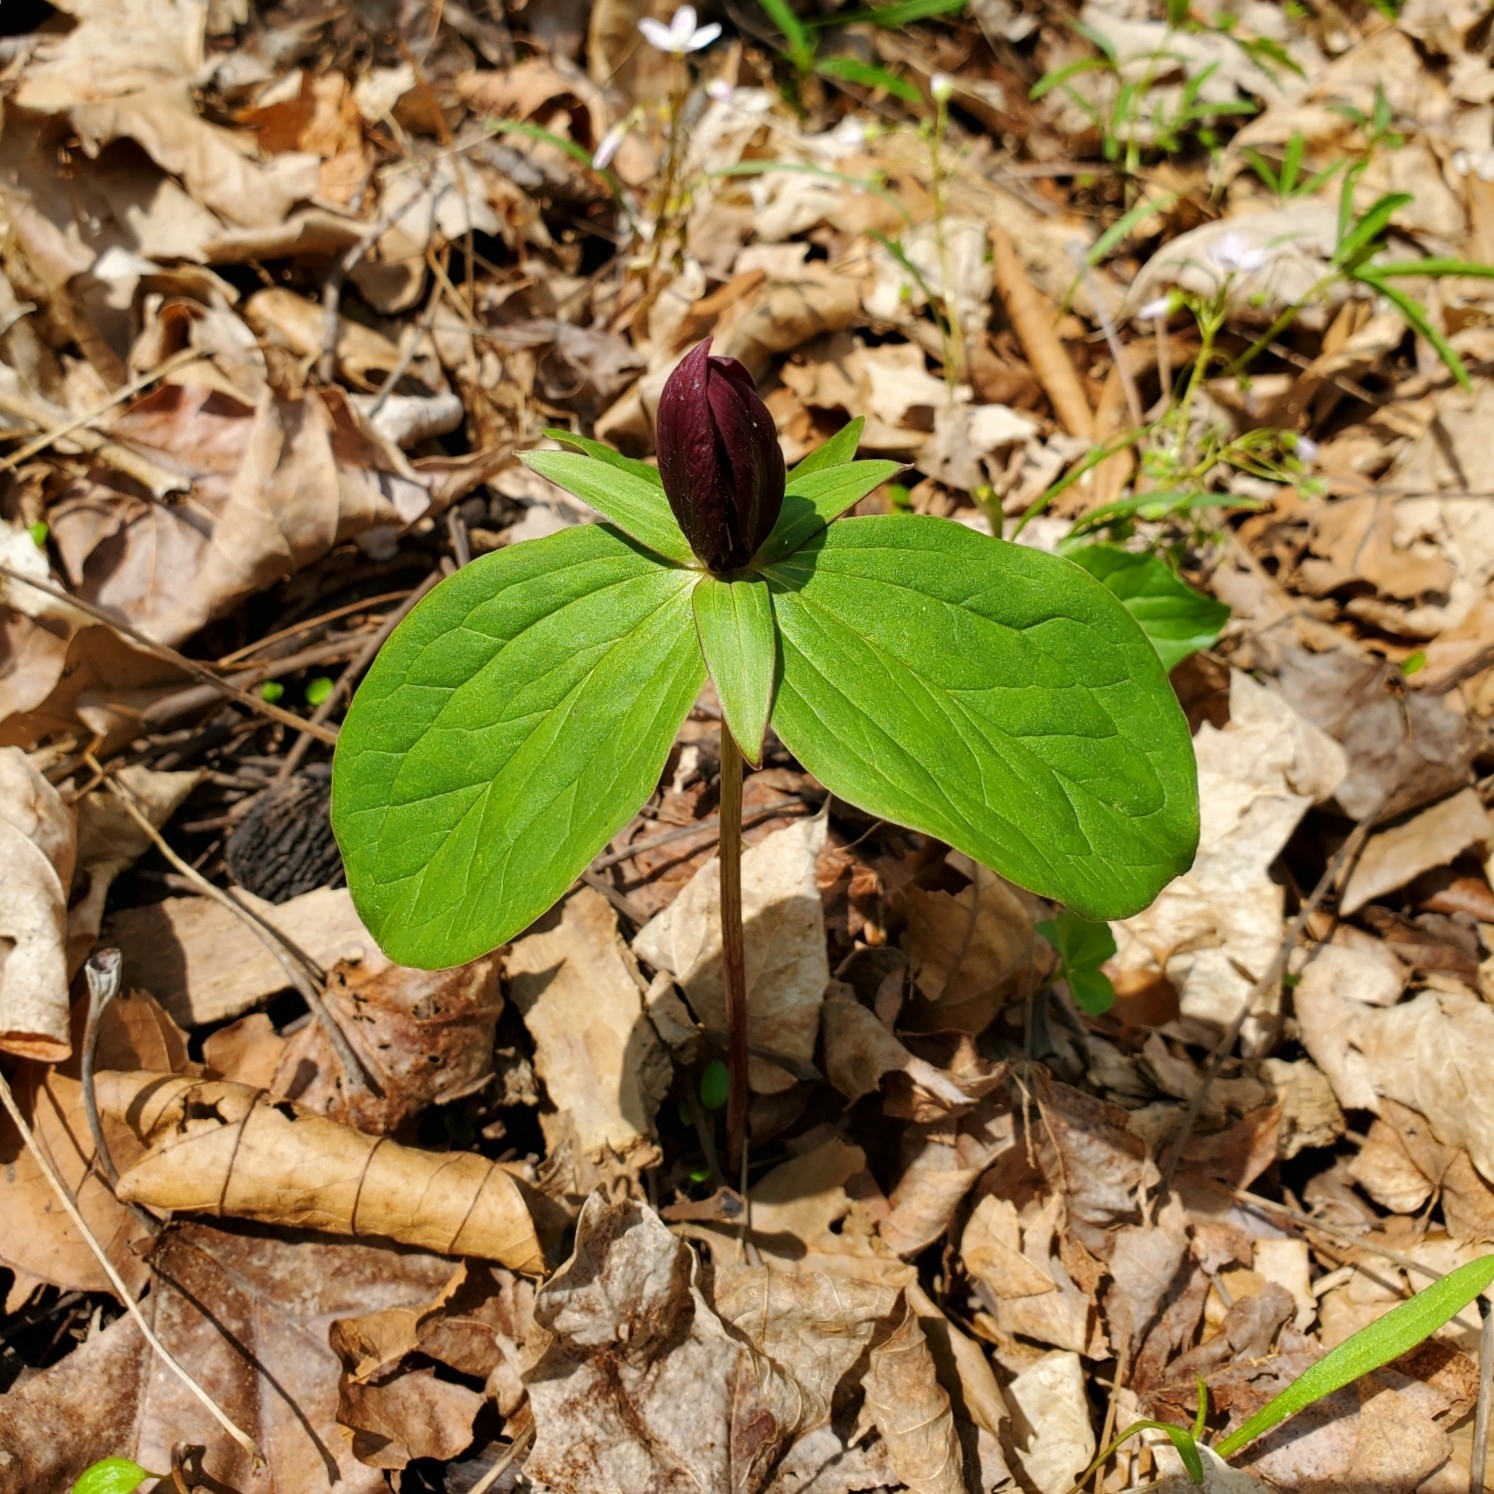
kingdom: Plantae
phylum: Tracheophyta
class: Liliopsida
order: Liliales
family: Melanthiaceae
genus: Trillium
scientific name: Trillium sessile
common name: Sessile trillium
